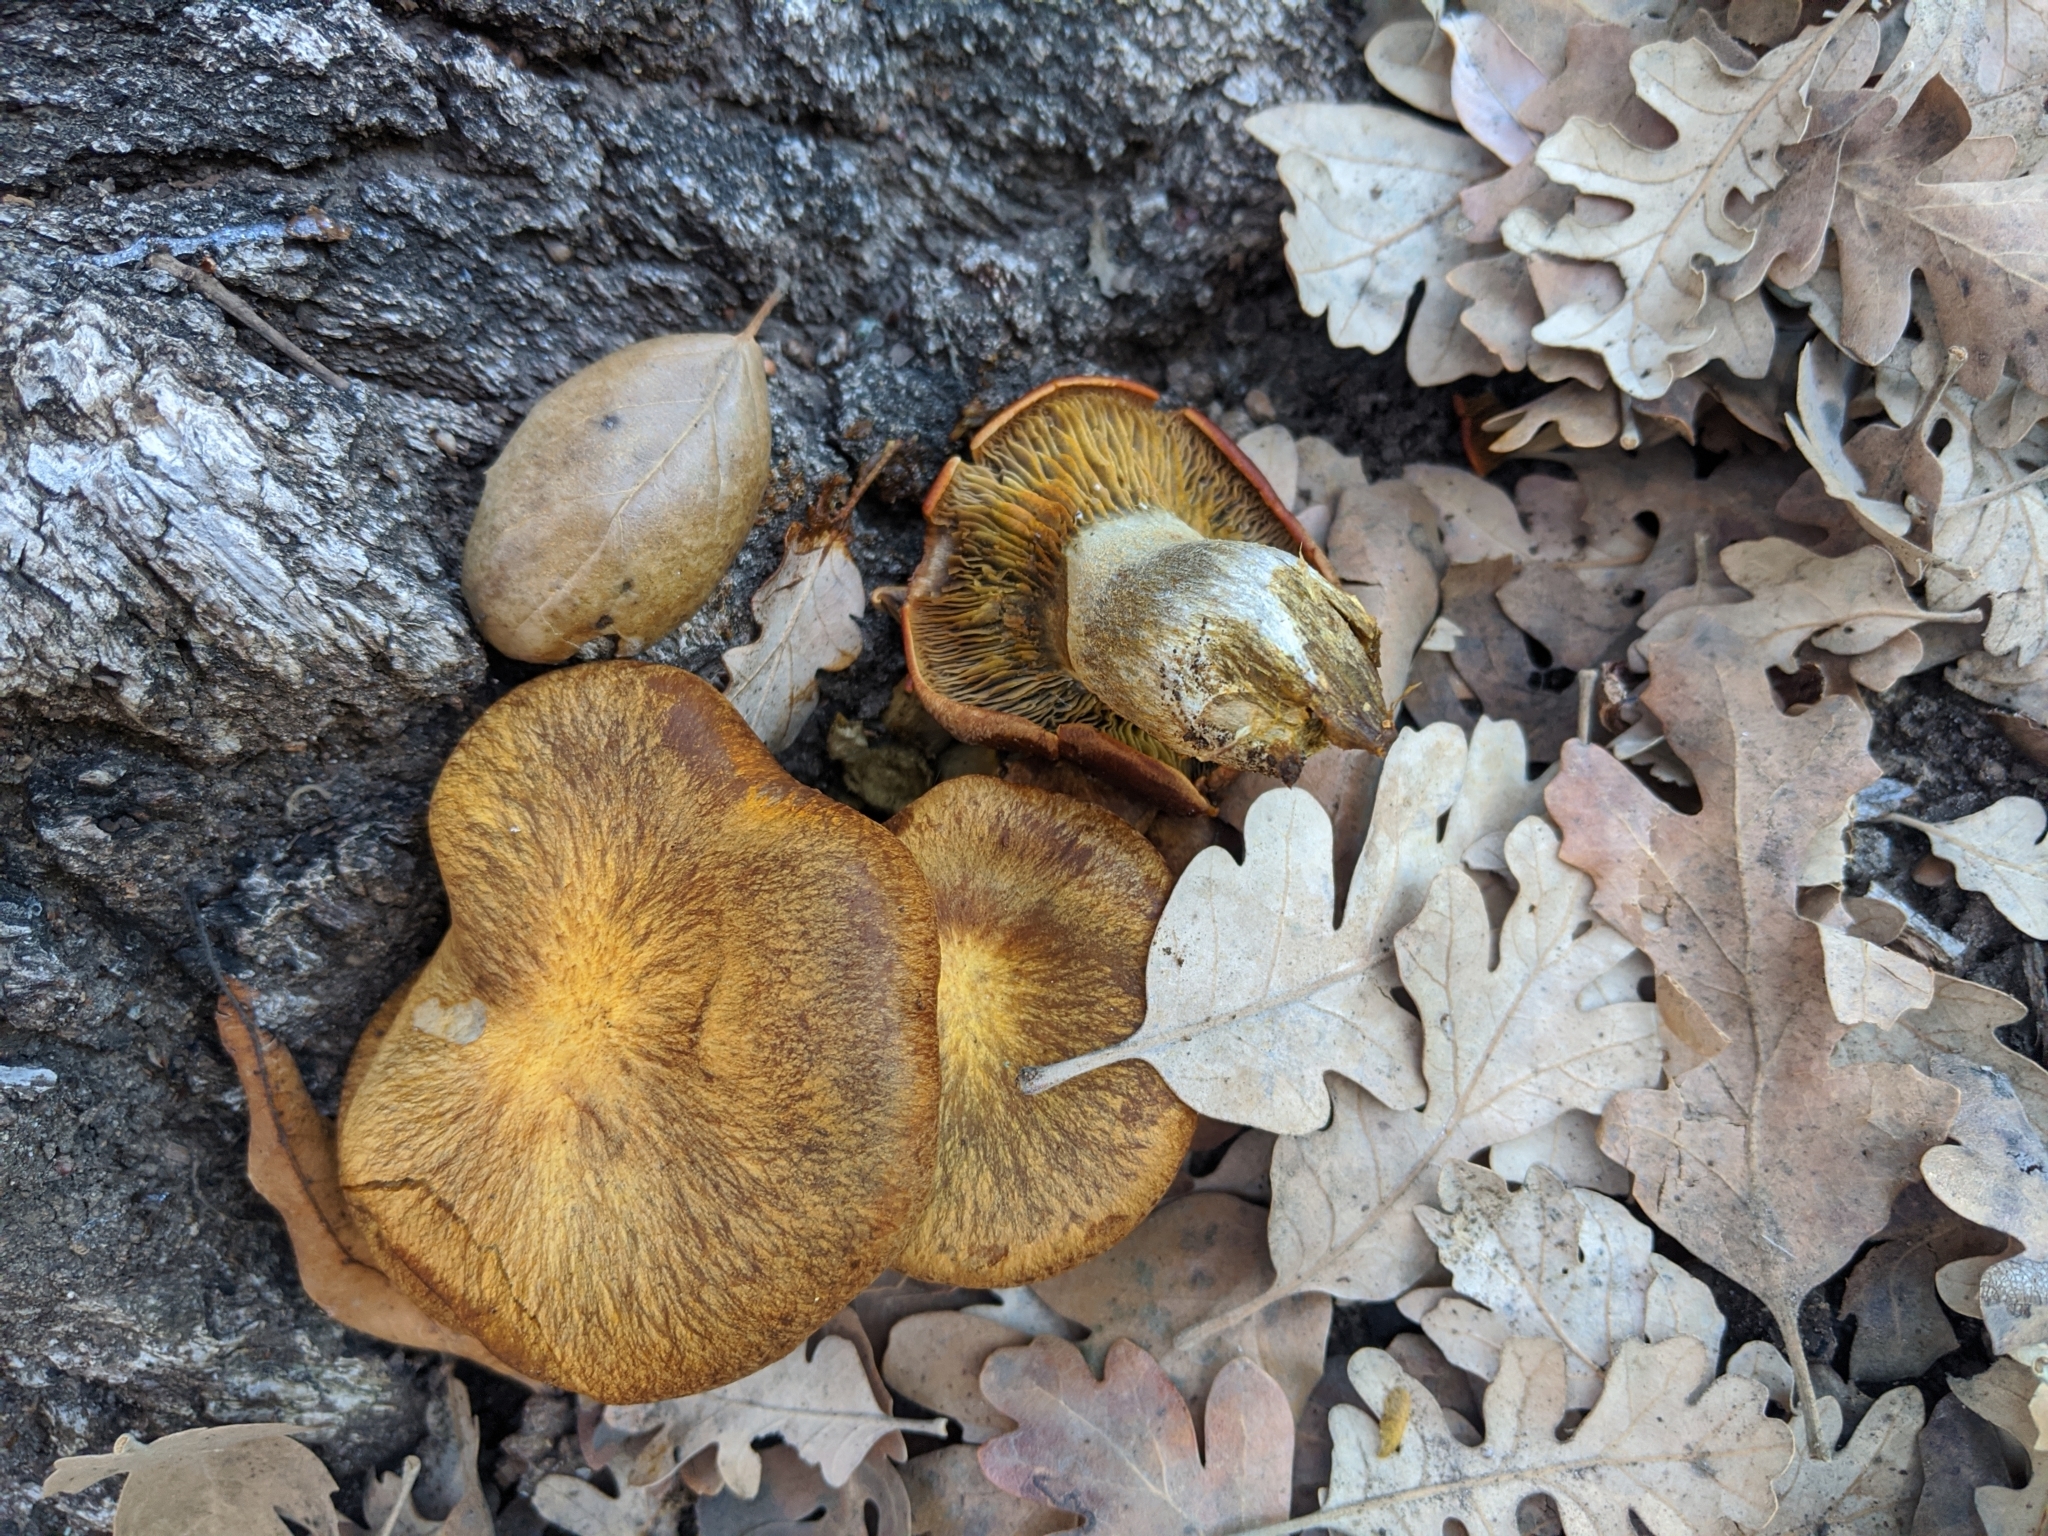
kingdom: Fungi
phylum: Basidiomycota
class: Agaricomycetes
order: Agaricales
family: Omphalotaceae
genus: Omphalotus
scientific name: Omphalotus olivascens
